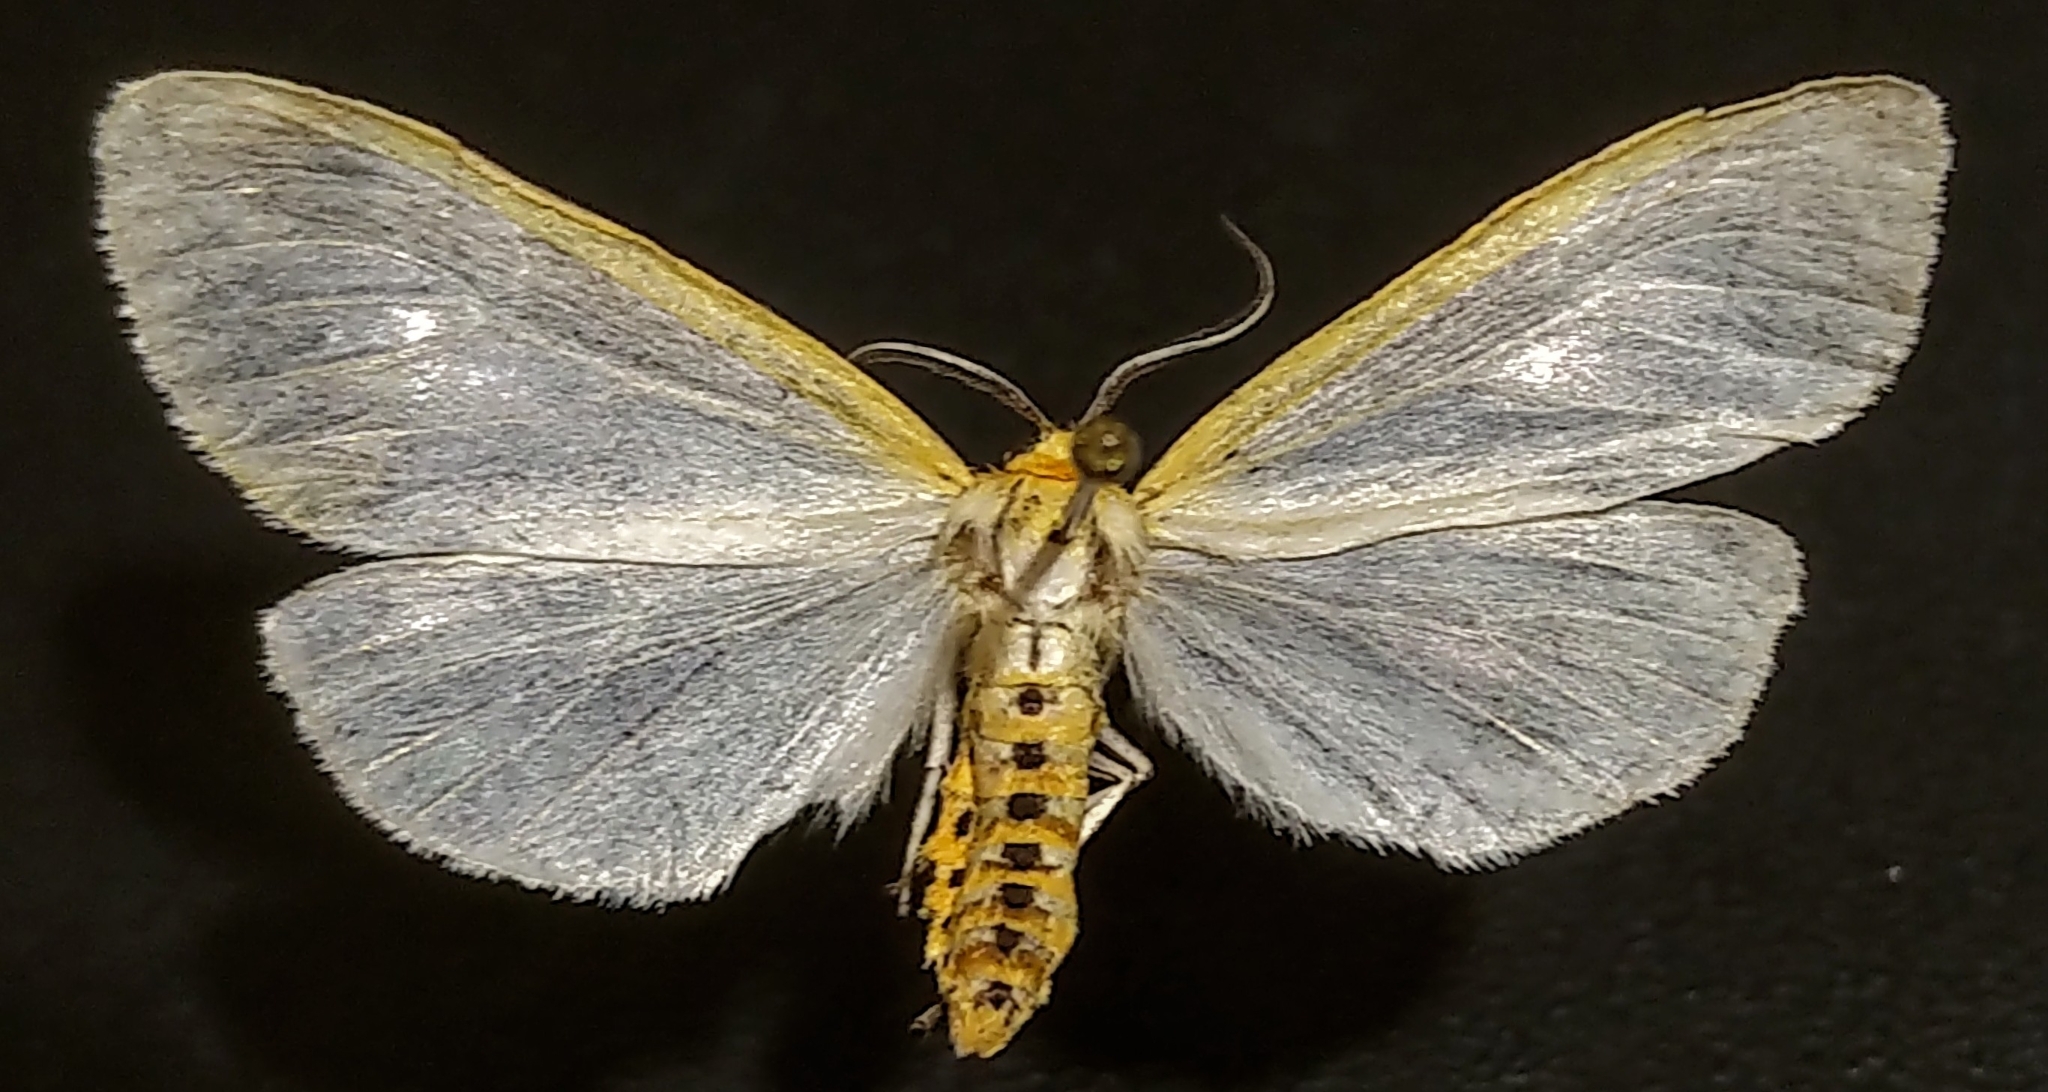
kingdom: Animalia
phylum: Arthropoda
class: Insecta
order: Lepidoptera
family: Erebidae
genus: Cycnia
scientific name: Cycnia tenera
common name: Delicate cycnia moth
